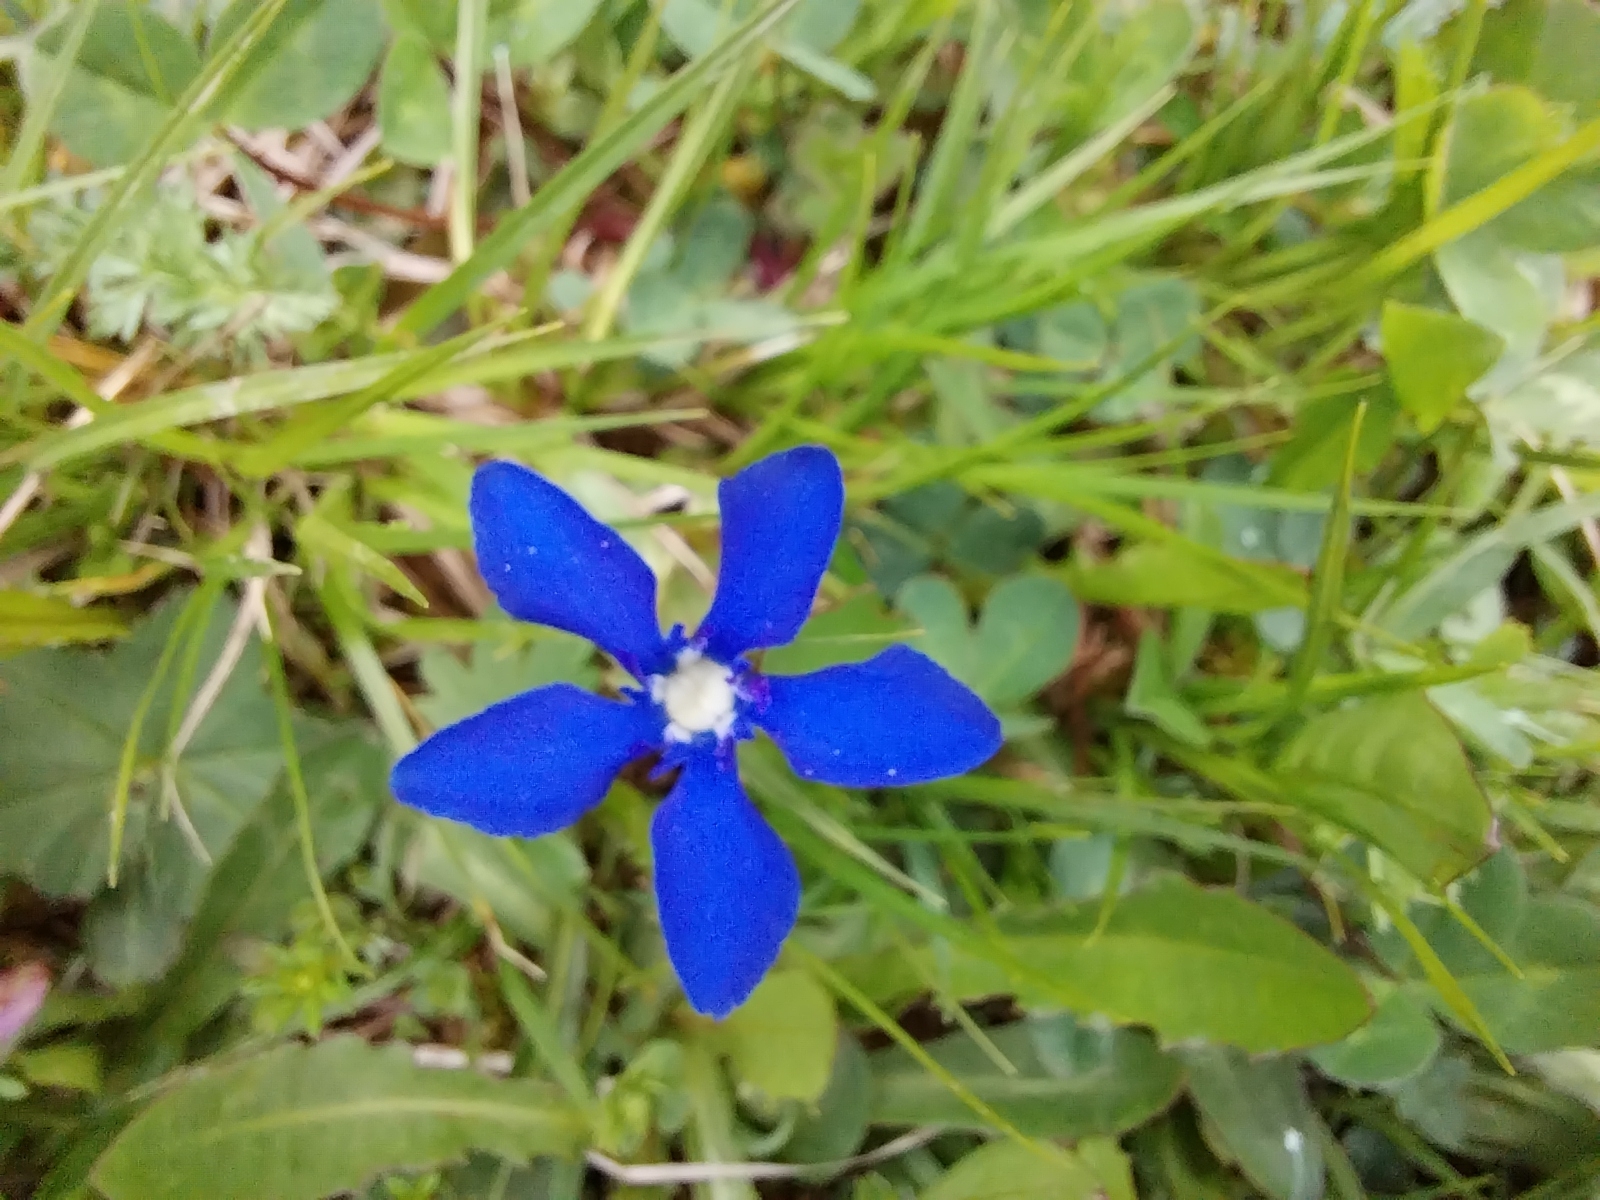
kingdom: Plantae
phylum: Tracheophyta
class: Magnoliopsida
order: Gentianales
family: Gentianaceae
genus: Gentiana
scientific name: Gentiana verna
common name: Spring gentian
